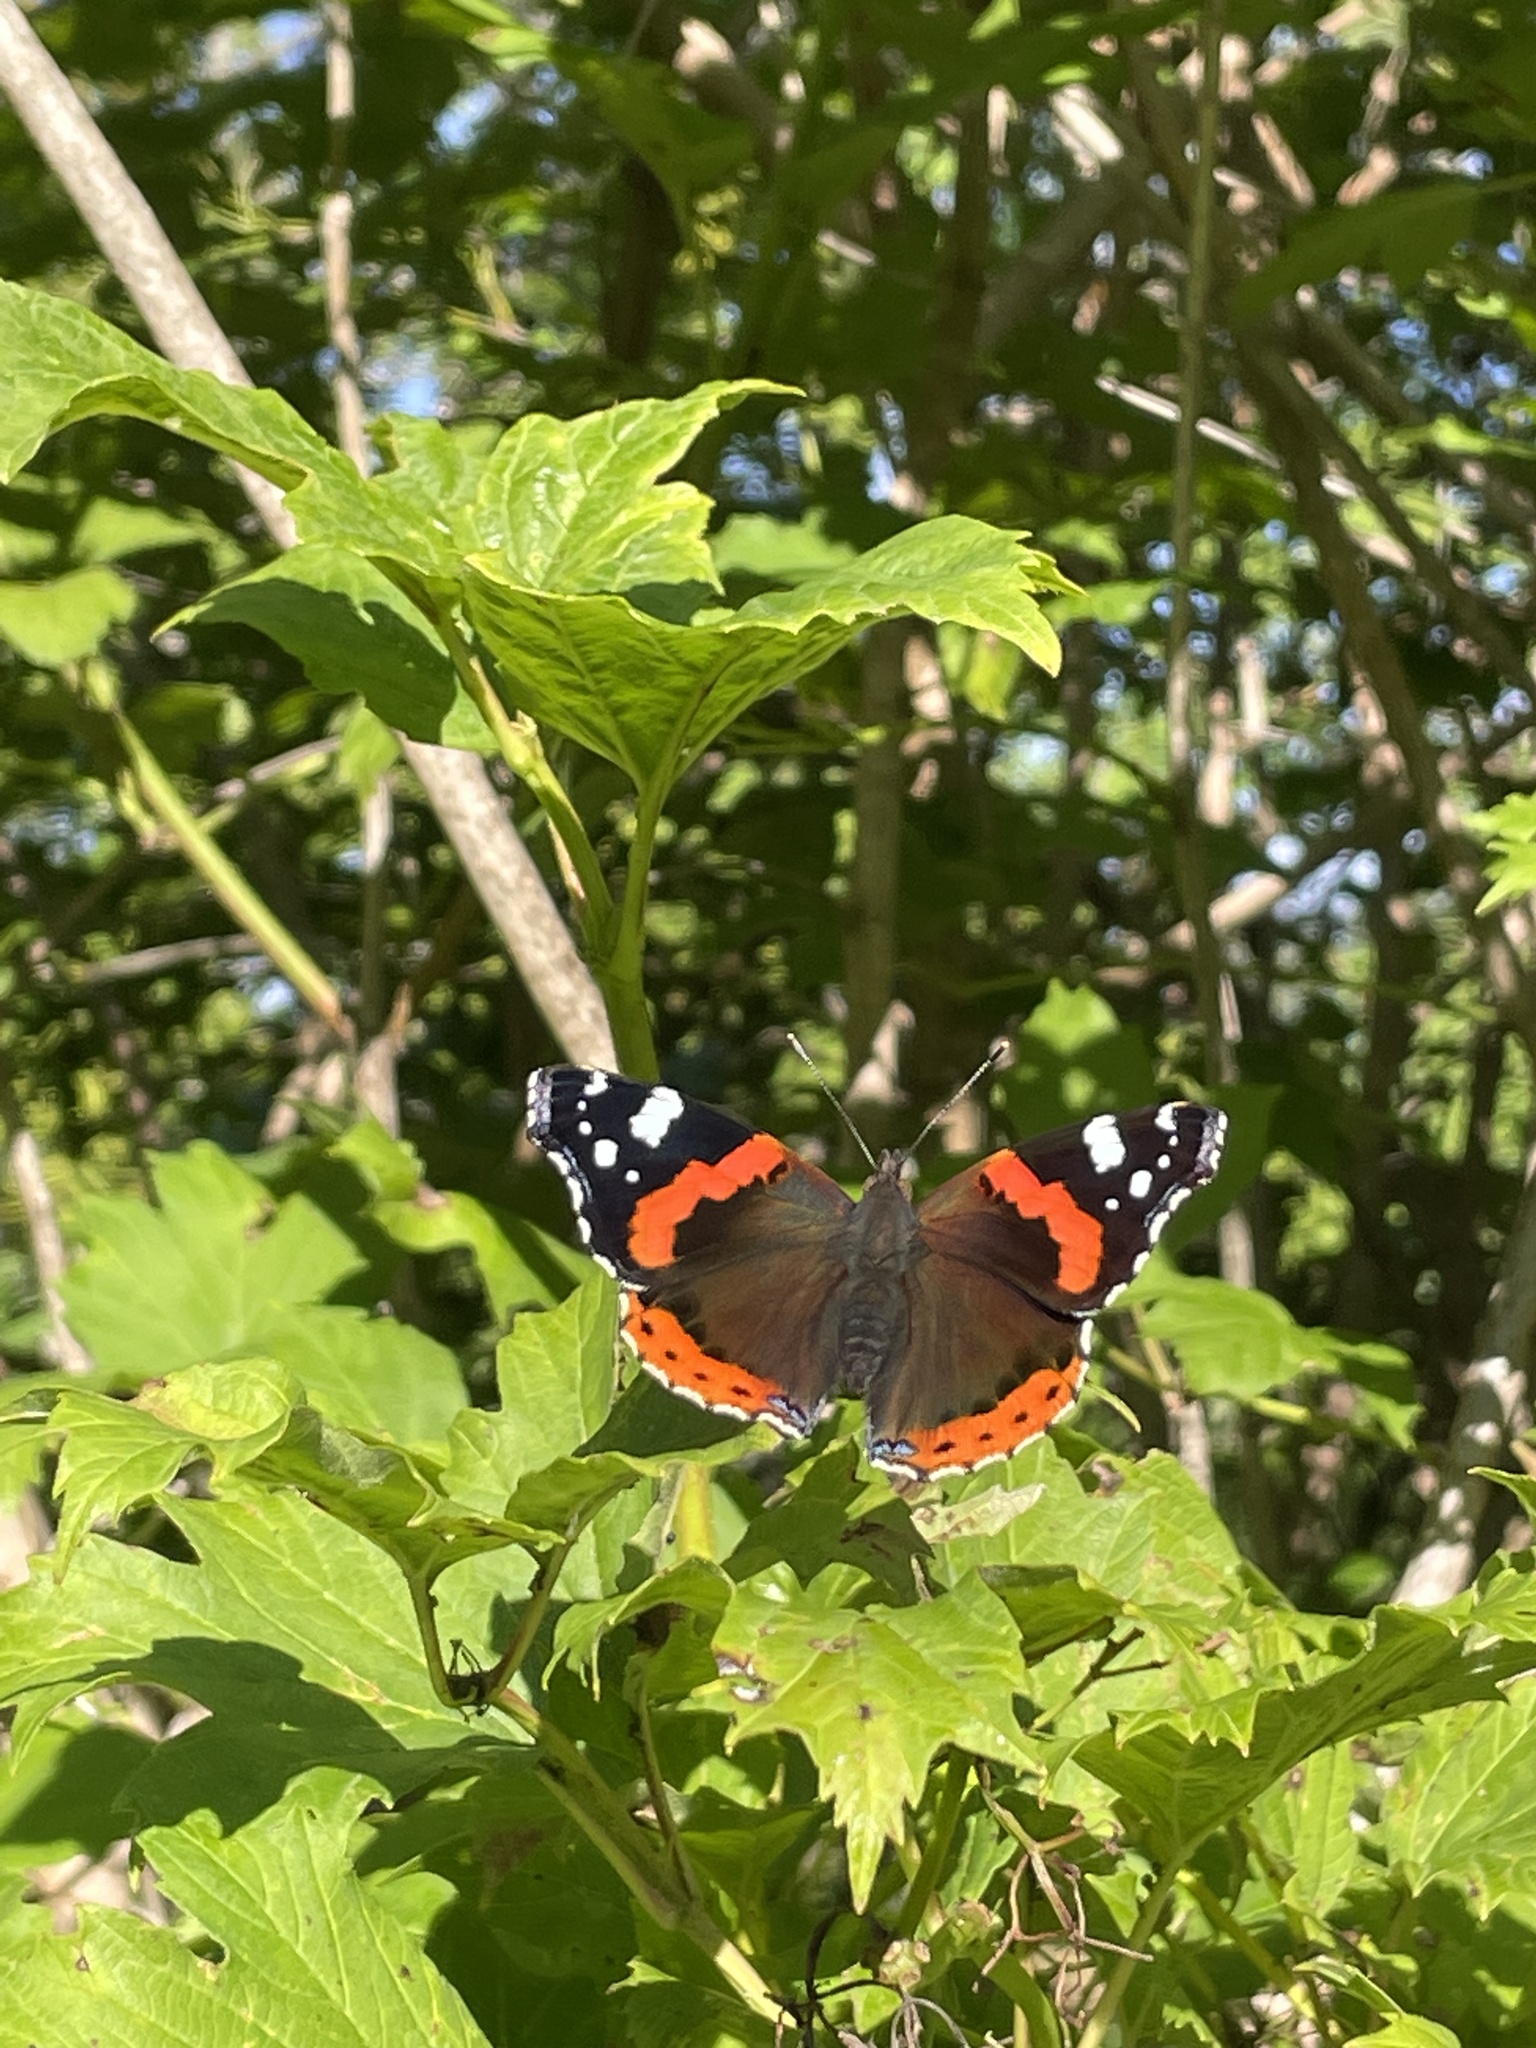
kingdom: Animalia
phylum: Arthropoda
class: Insecta
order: Lepidoptera
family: Nymphalidae
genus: Vanessa
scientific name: Vanessa atalanta
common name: Red admiral
